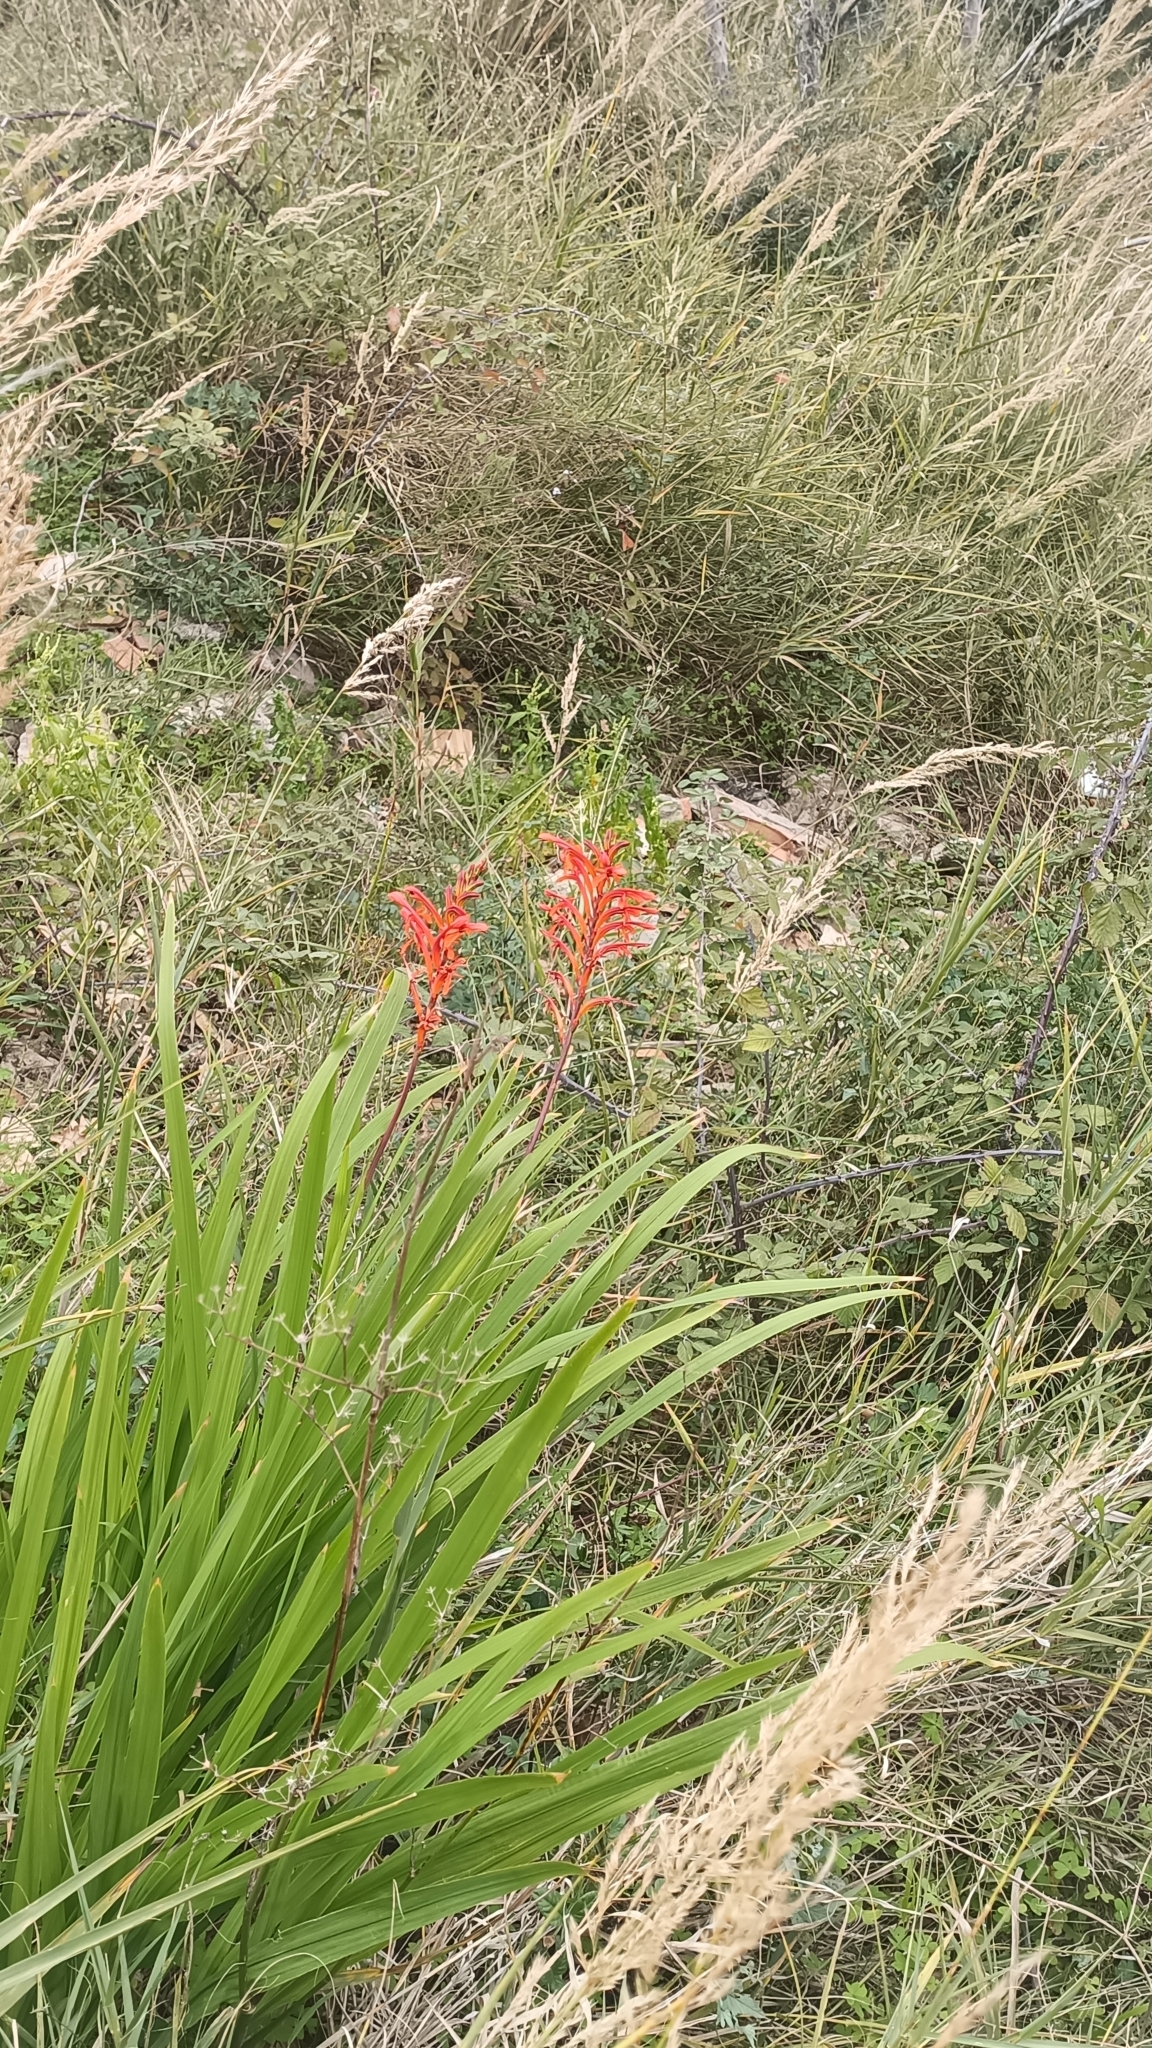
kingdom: Plantae
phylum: Tracheophyta
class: Liliopsida
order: Asparagales
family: Iridaceae
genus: Chasmanthe
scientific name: Chasmanthe floribunda
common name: African cornflag
